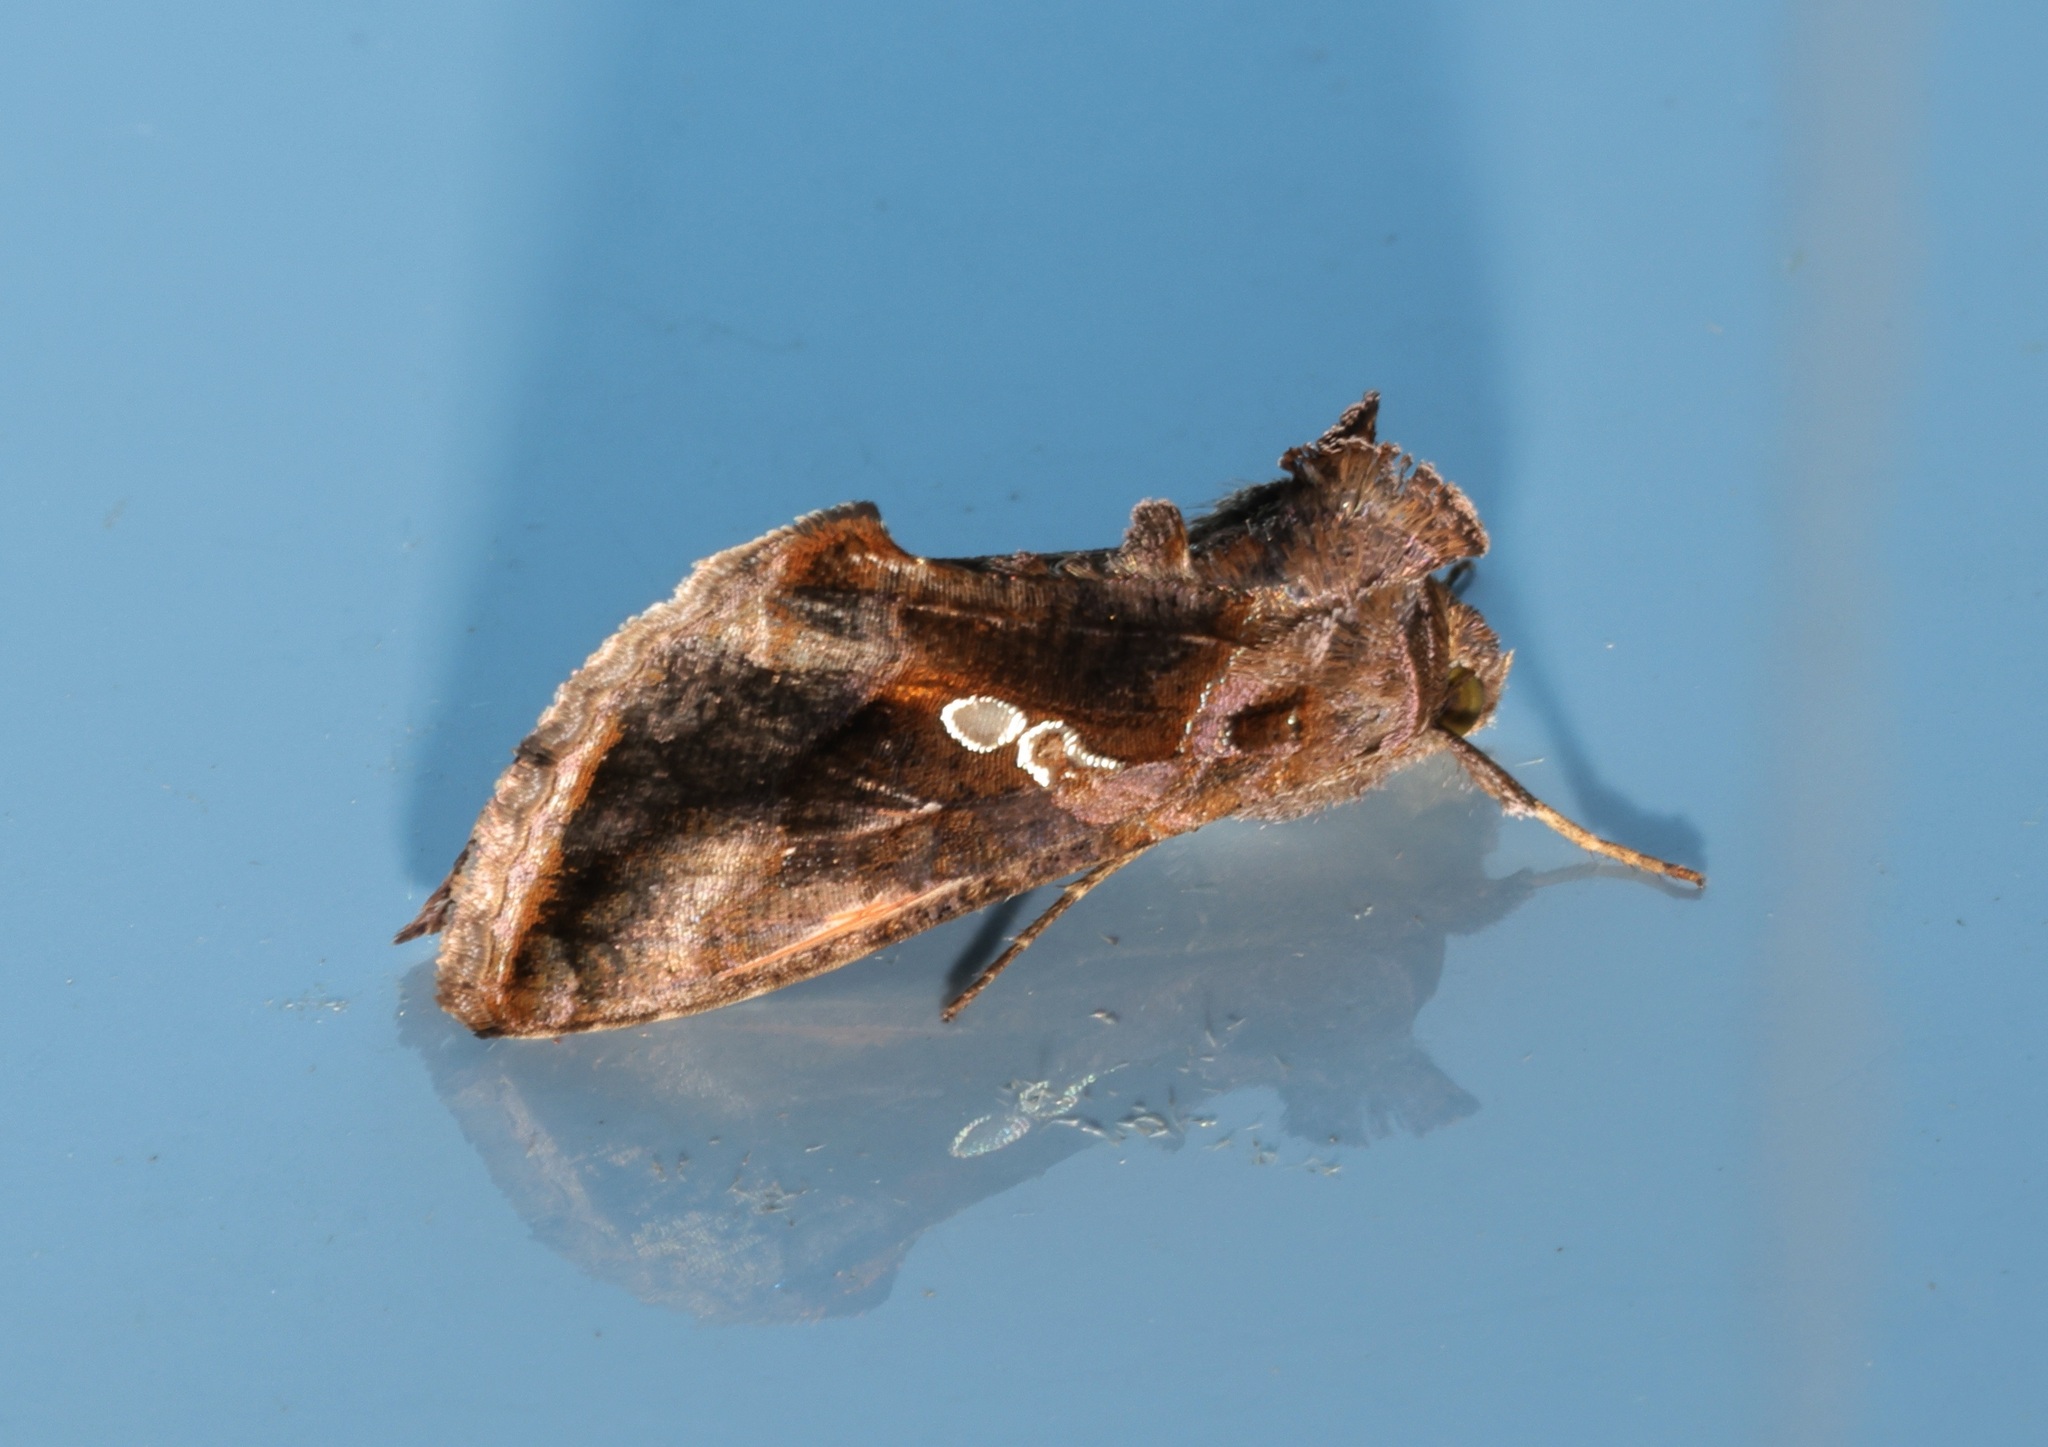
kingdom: Animalia
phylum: Arthropoda
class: Insecta
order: Lepidoptera
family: Noctuidae
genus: Chrysodeixis
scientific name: Chrysodeixis eriosoma
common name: Green garden looper
